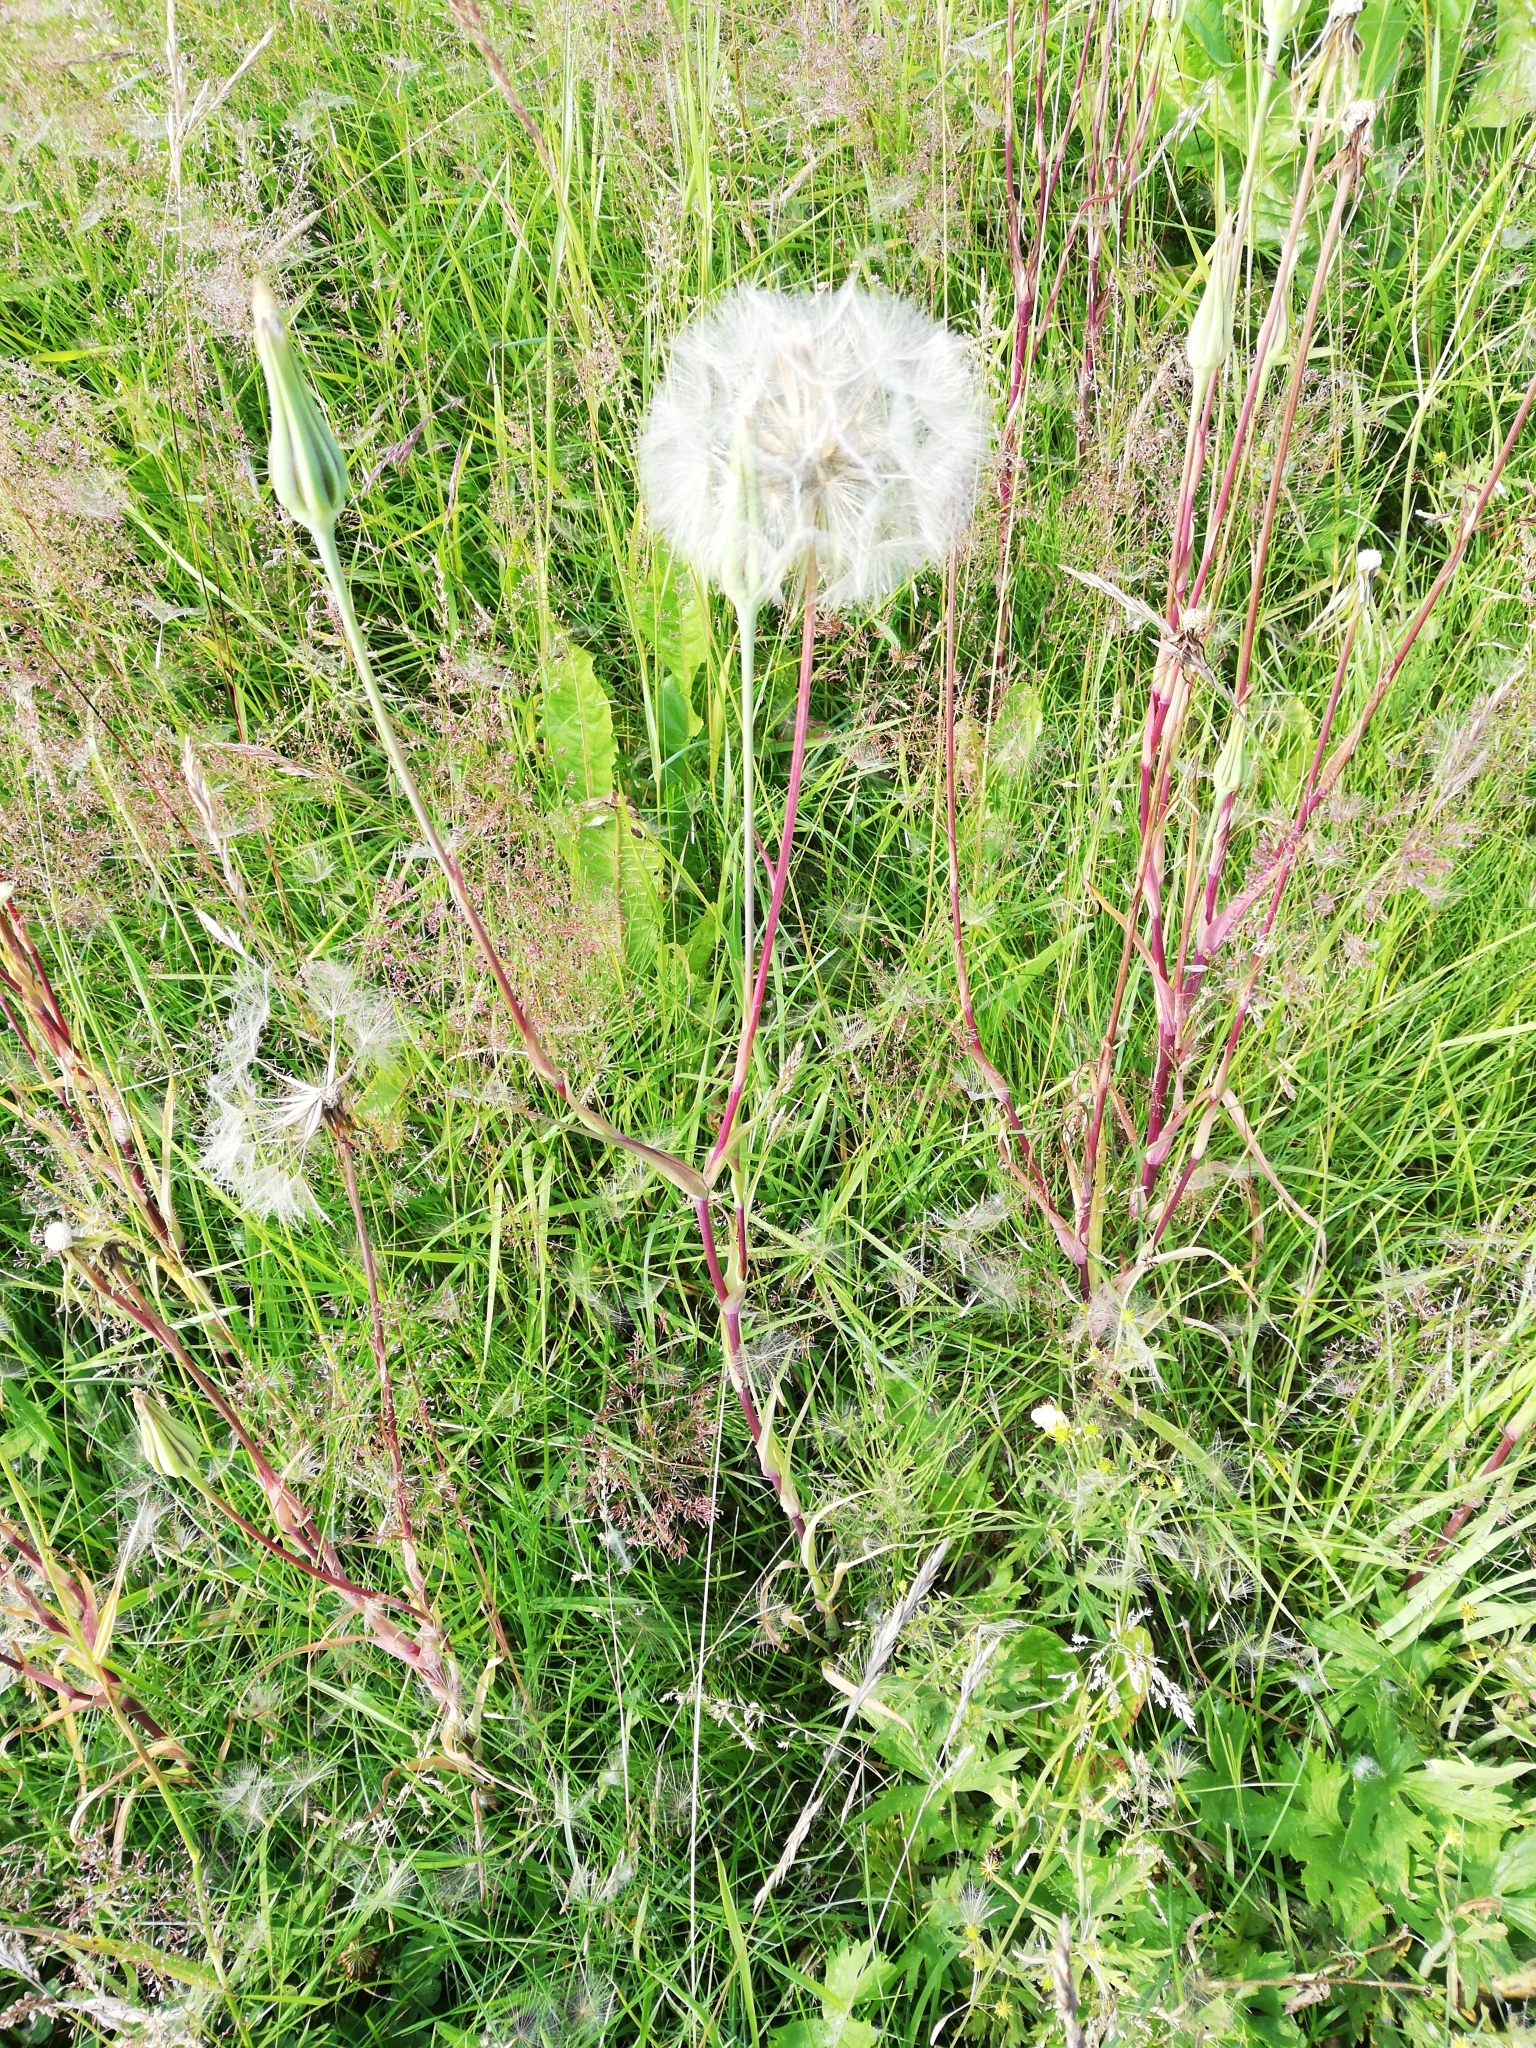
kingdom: Plantae
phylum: Tracheophyta
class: Magnoliopsida
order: Asterales
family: Asteraceae
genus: Tragopogon
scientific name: Tragopogon pratensis
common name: Goat's-beard
